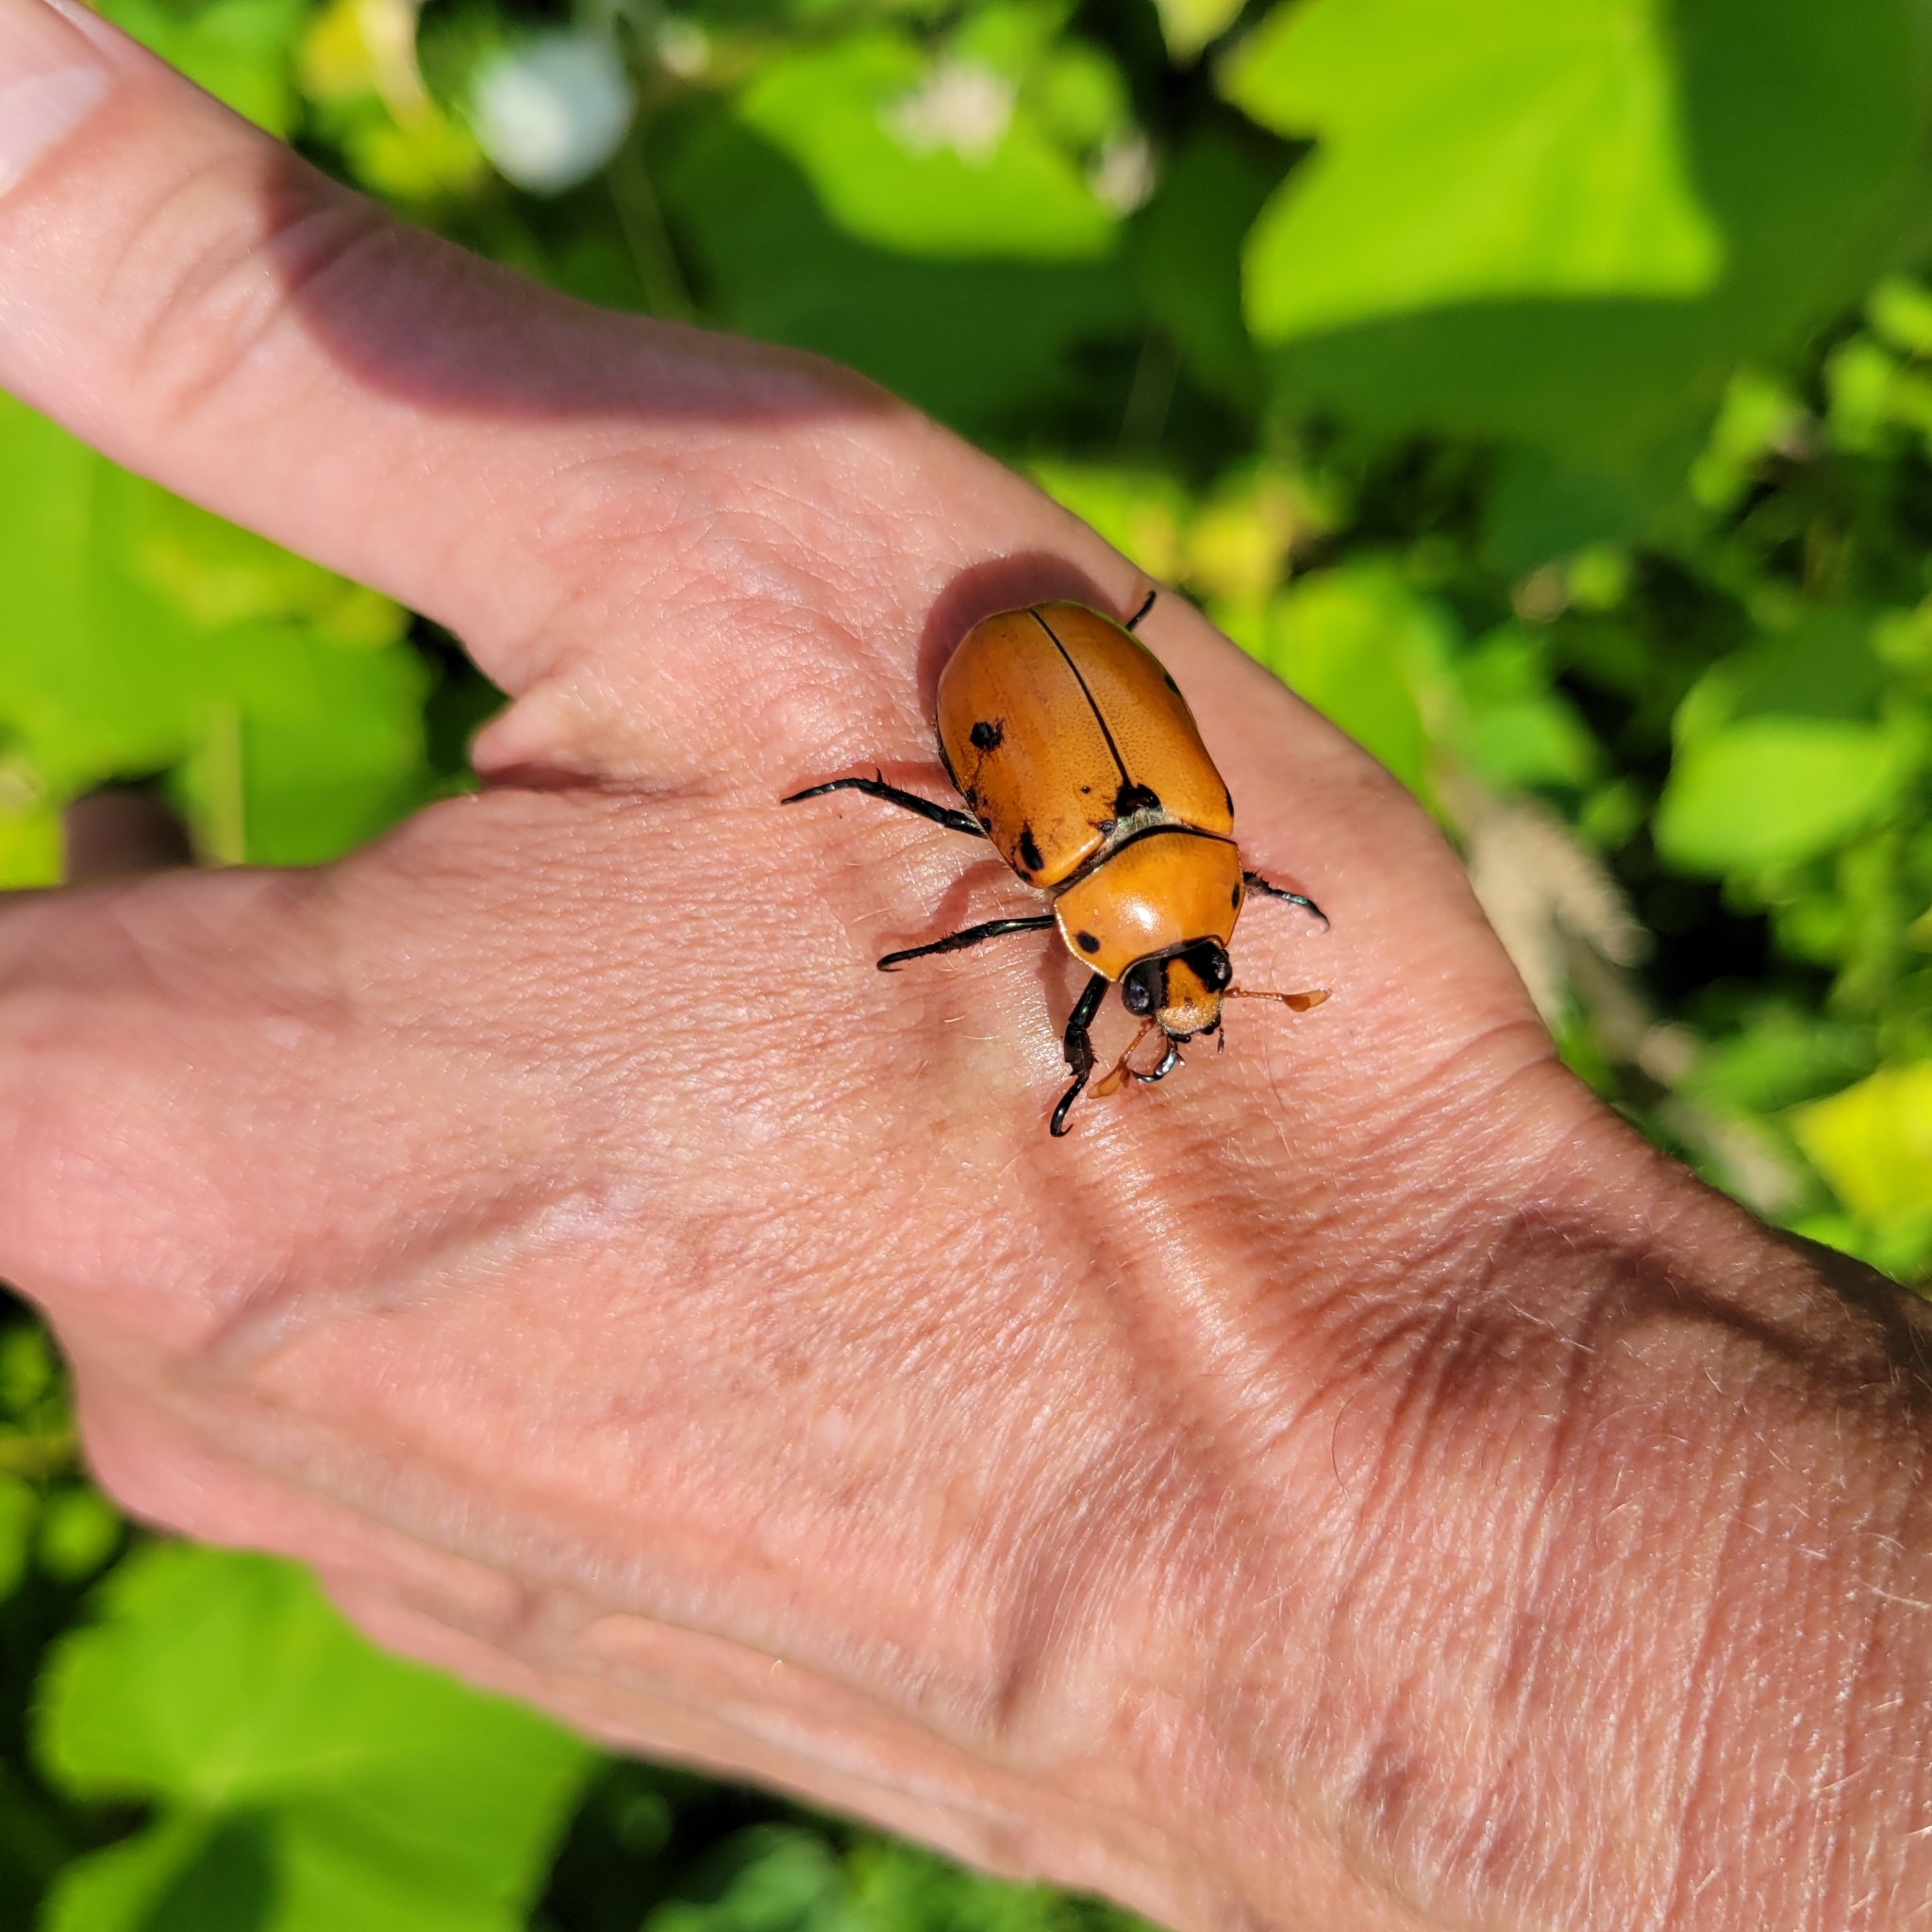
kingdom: Animalia
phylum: Arthropoda
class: Insecta
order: Coleoptera
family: Scarabaeidae
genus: Pelidnota
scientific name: Pelidnota punctata
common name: Grapevine beetle
